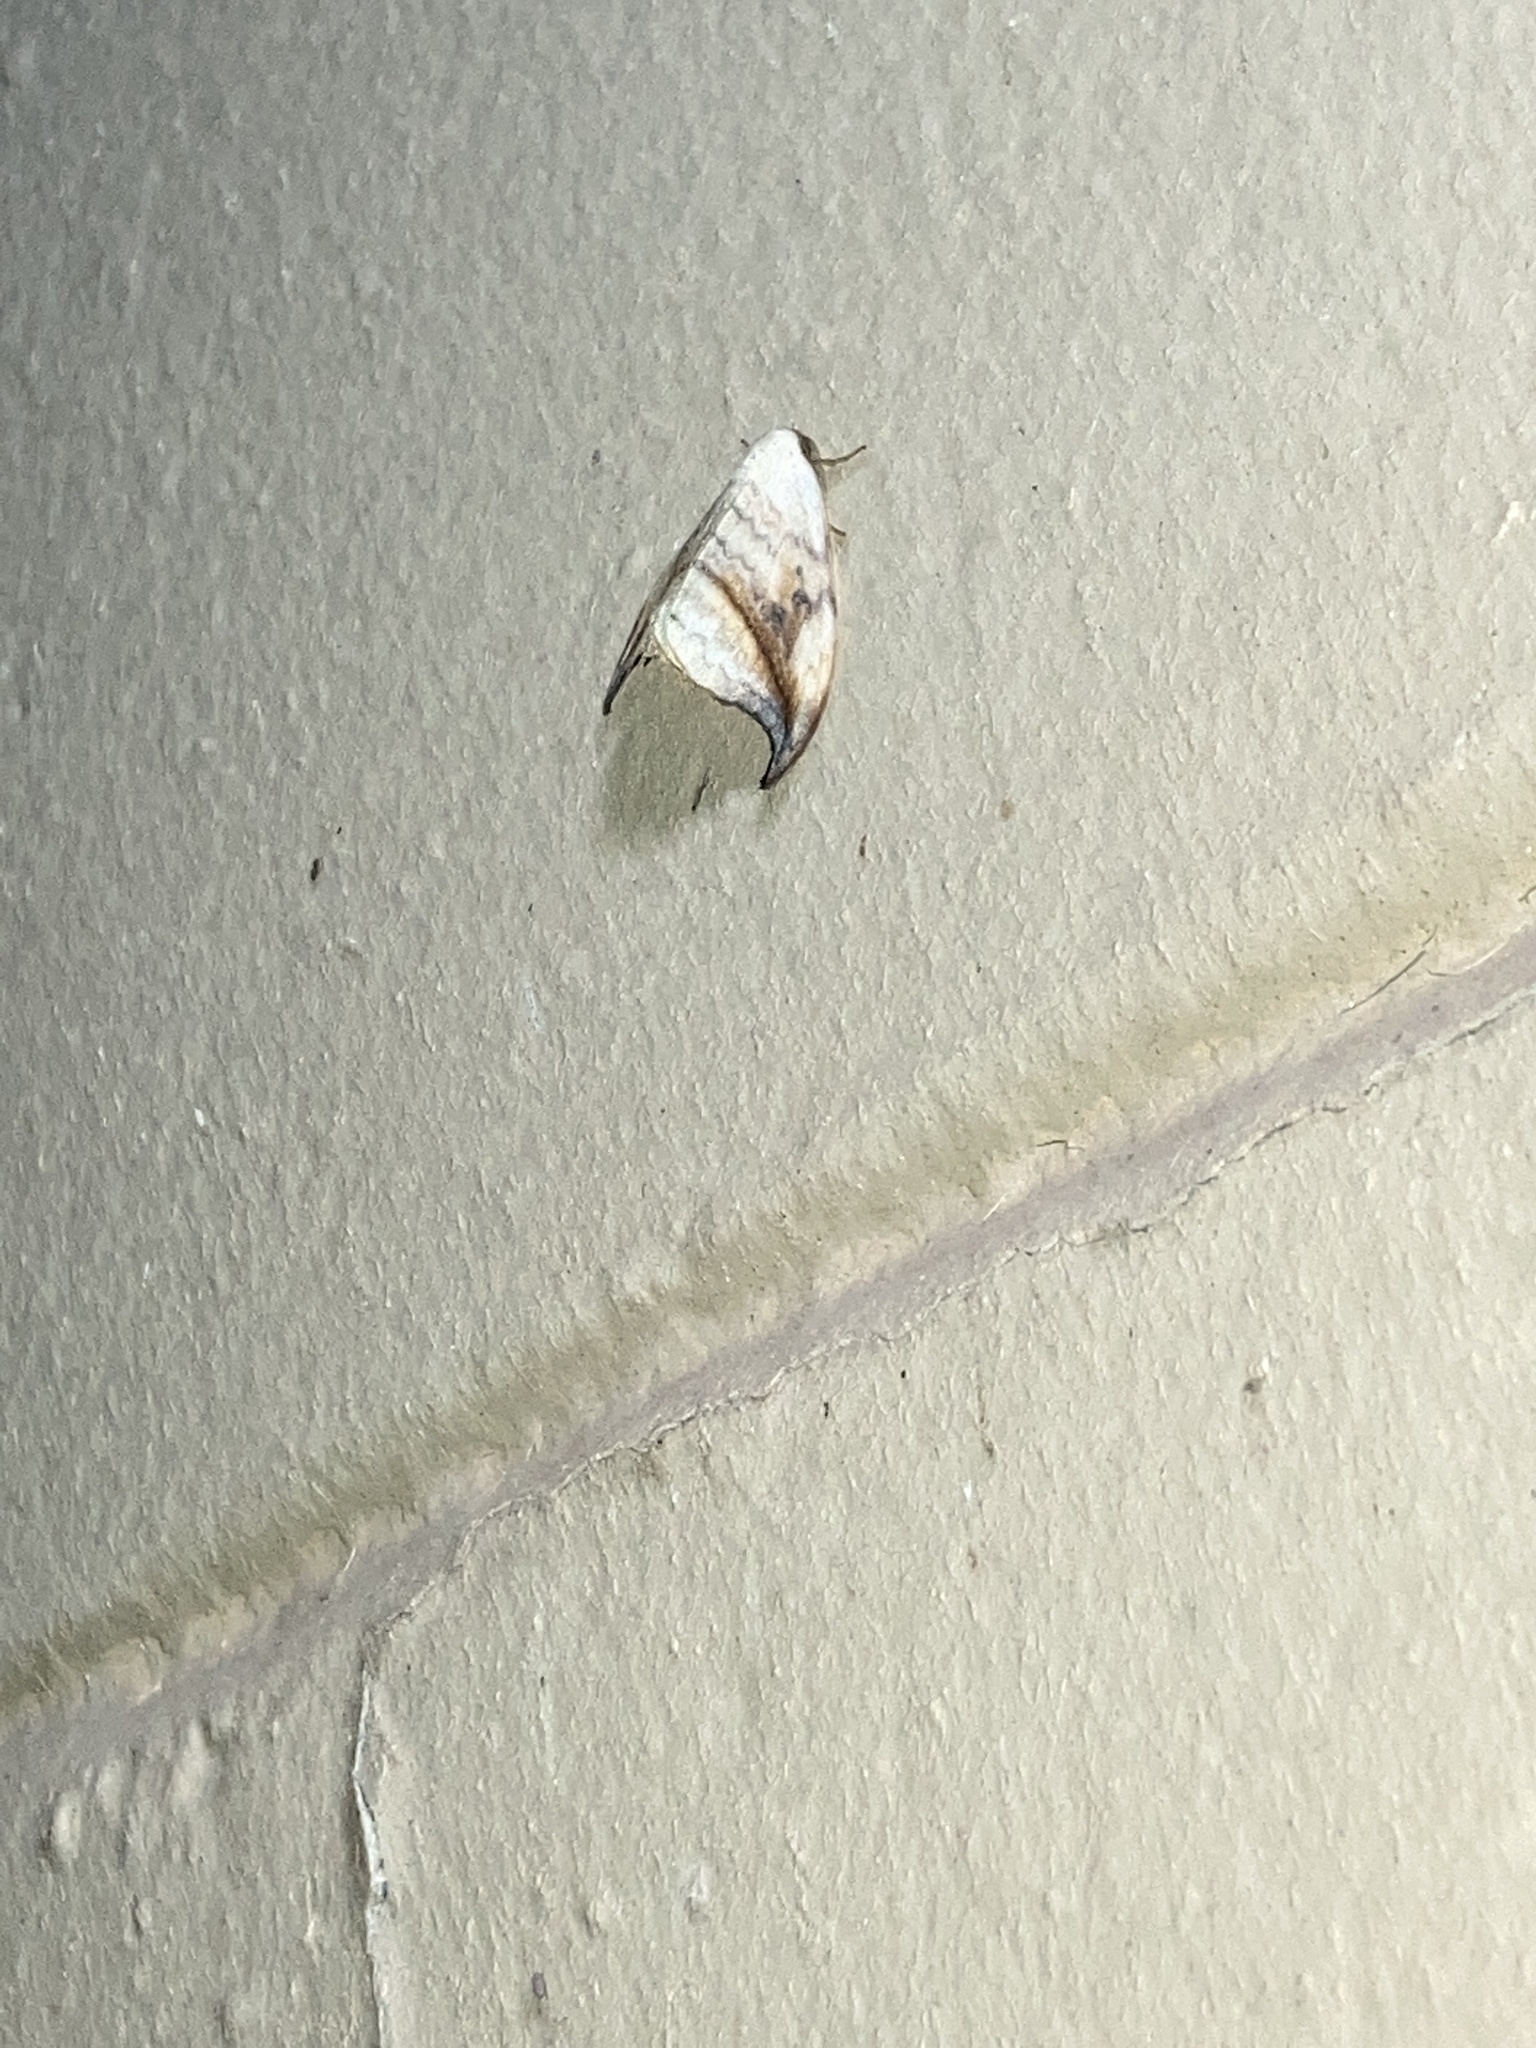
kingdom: Animalia
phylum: Arthropoda
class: Insecta
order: Lepidoptera
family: Drepanidae
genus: Drepana
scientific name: Drepana arcuata
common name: Arched hooktip moth
